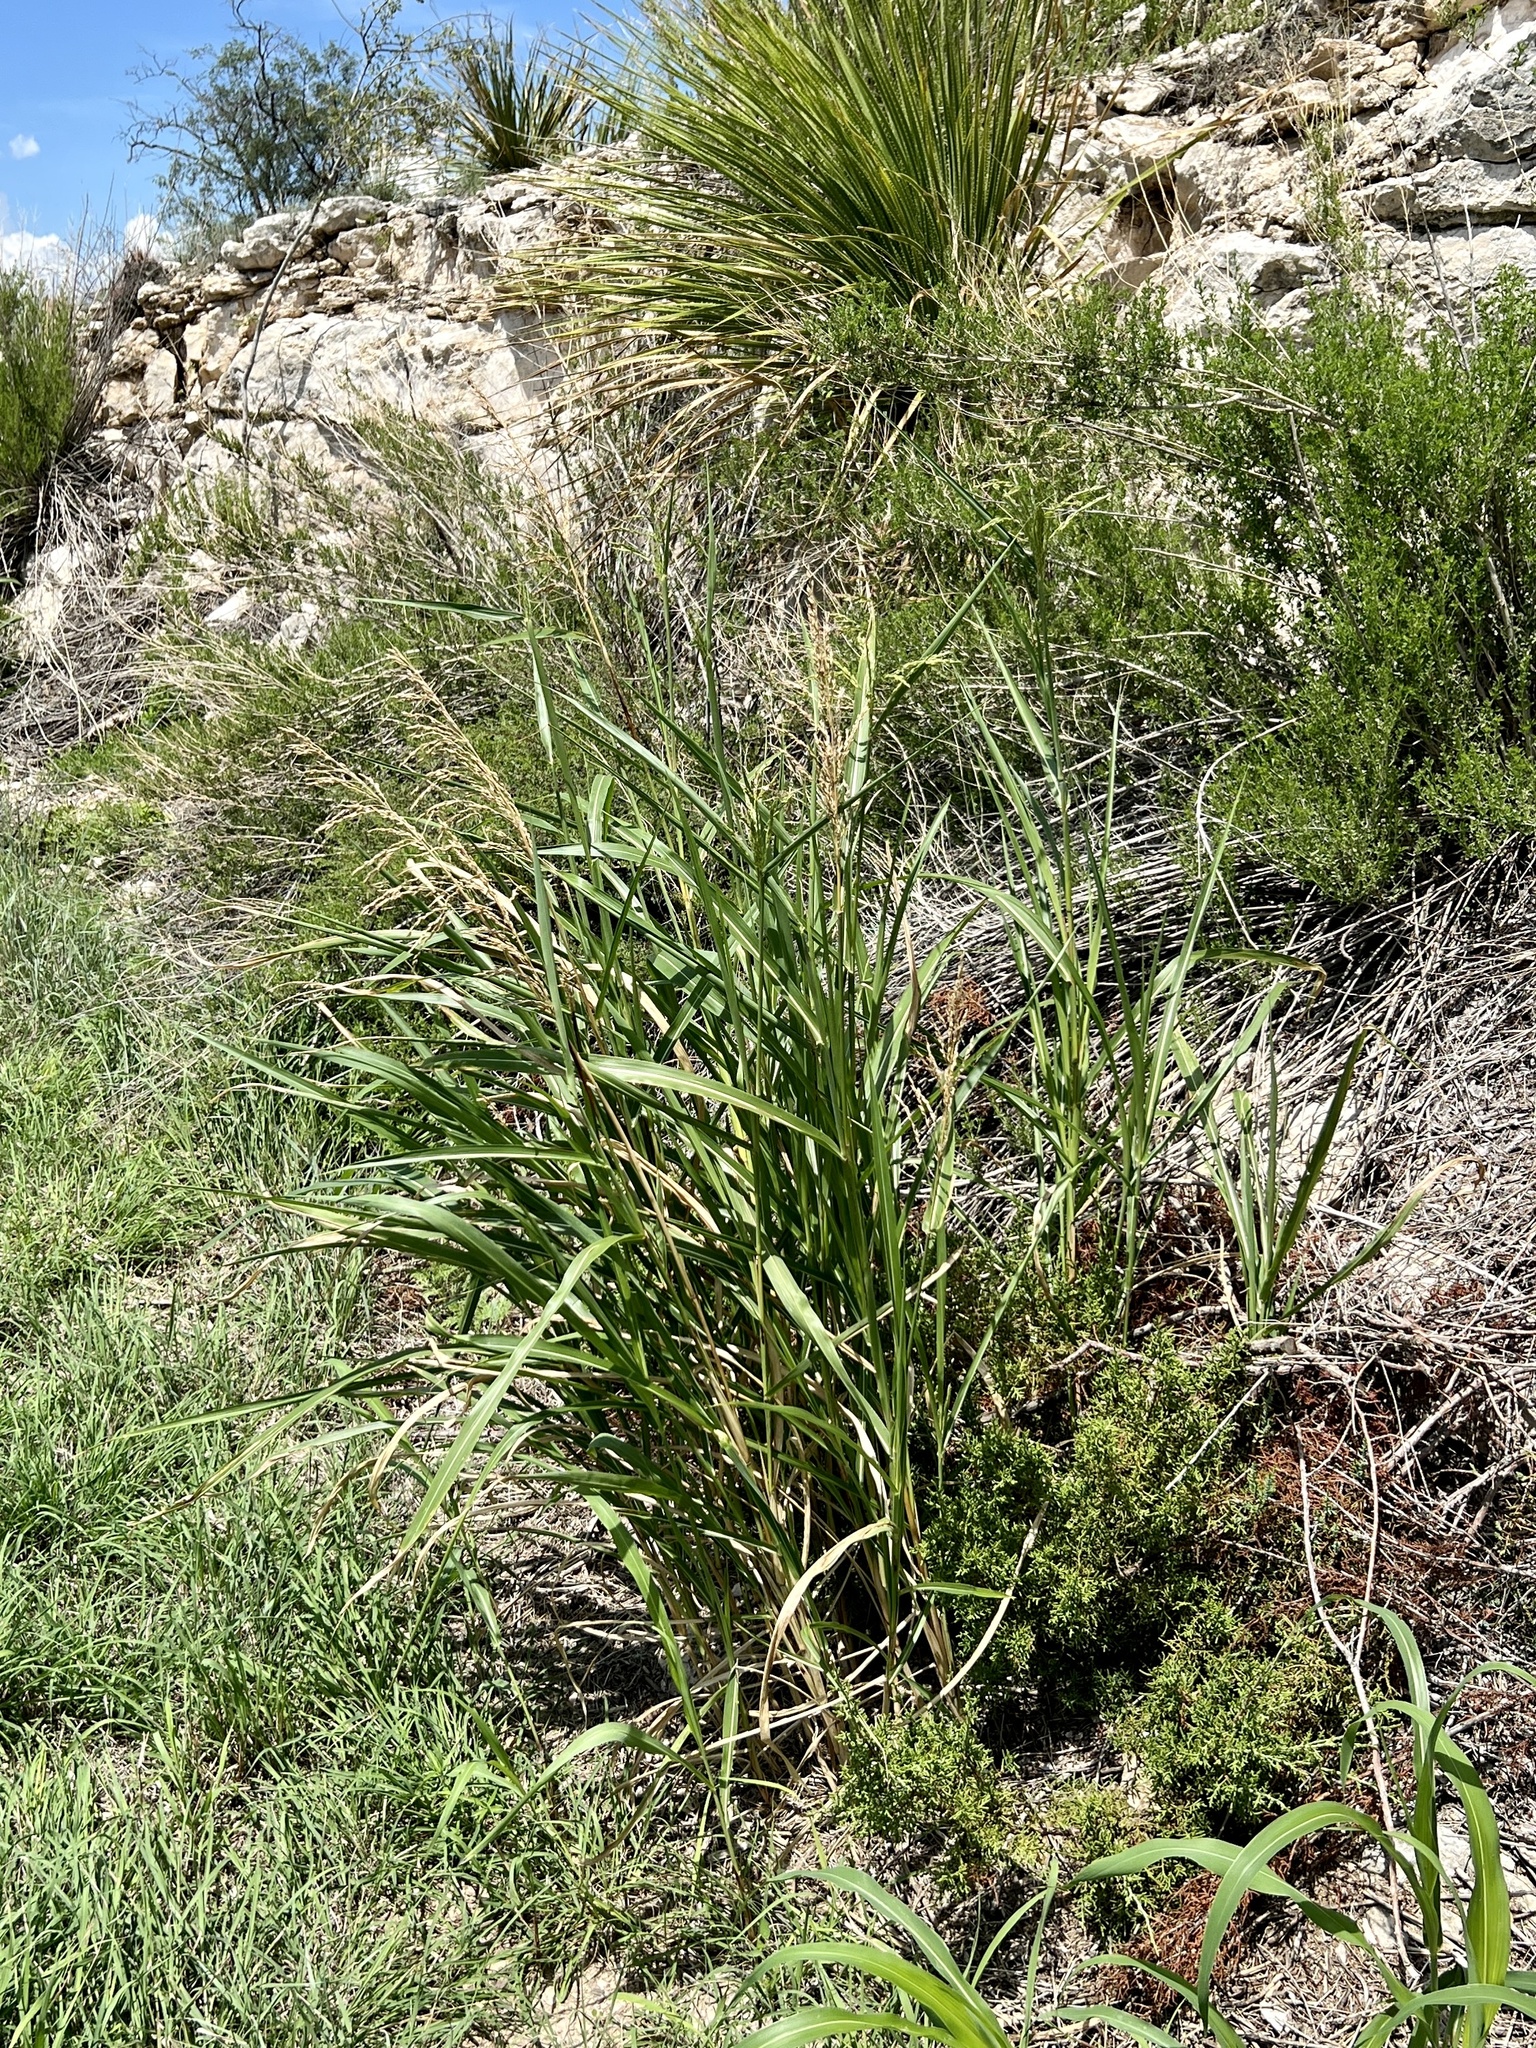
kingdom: Plantae
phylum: Tracheophyta
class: Liliopsida
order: Poales
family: Poaceae
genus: Sorghum
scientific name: Sorghum halepense
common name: Johnson-grass
